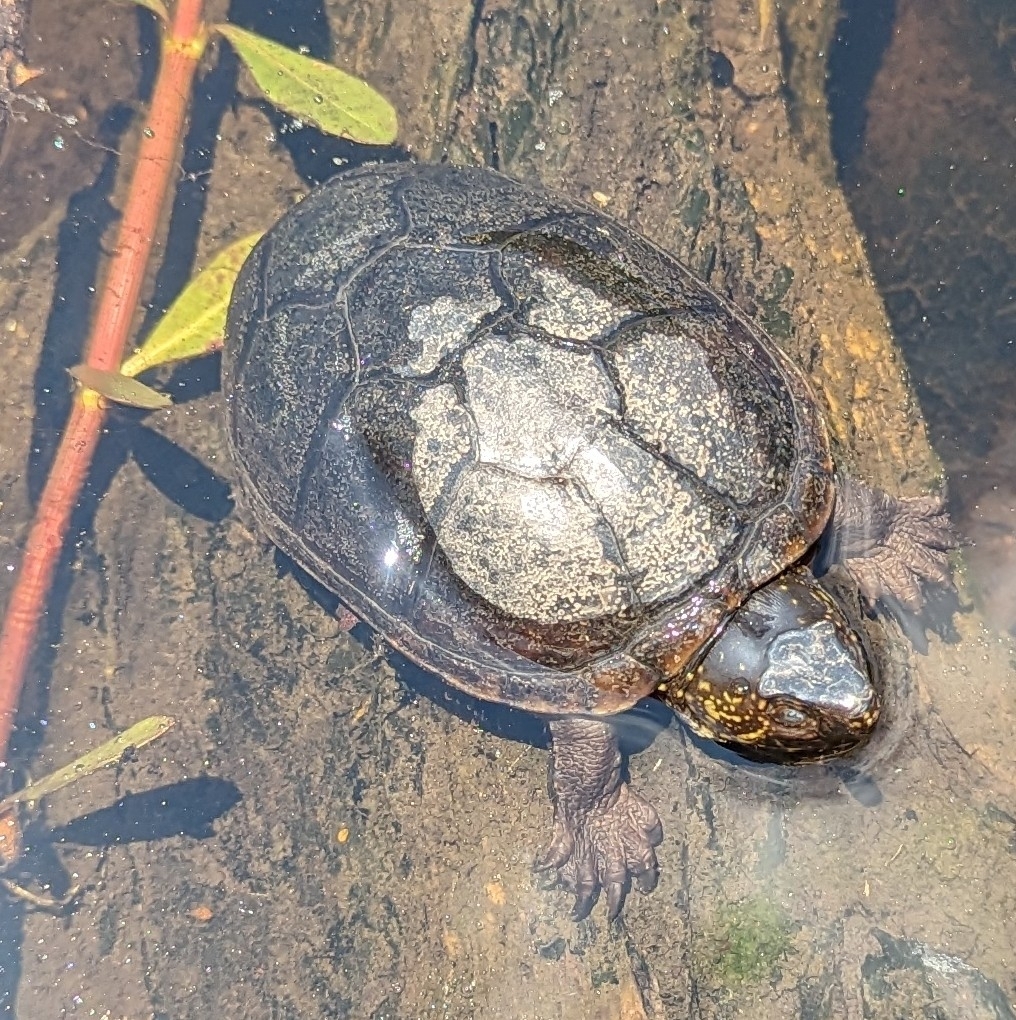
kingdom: Animalia
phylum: Chordata
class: Testudines
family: Kinosternidae
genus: Kinosternon
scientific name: Kinosternon subrubrum
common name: Eastern mud turtle
